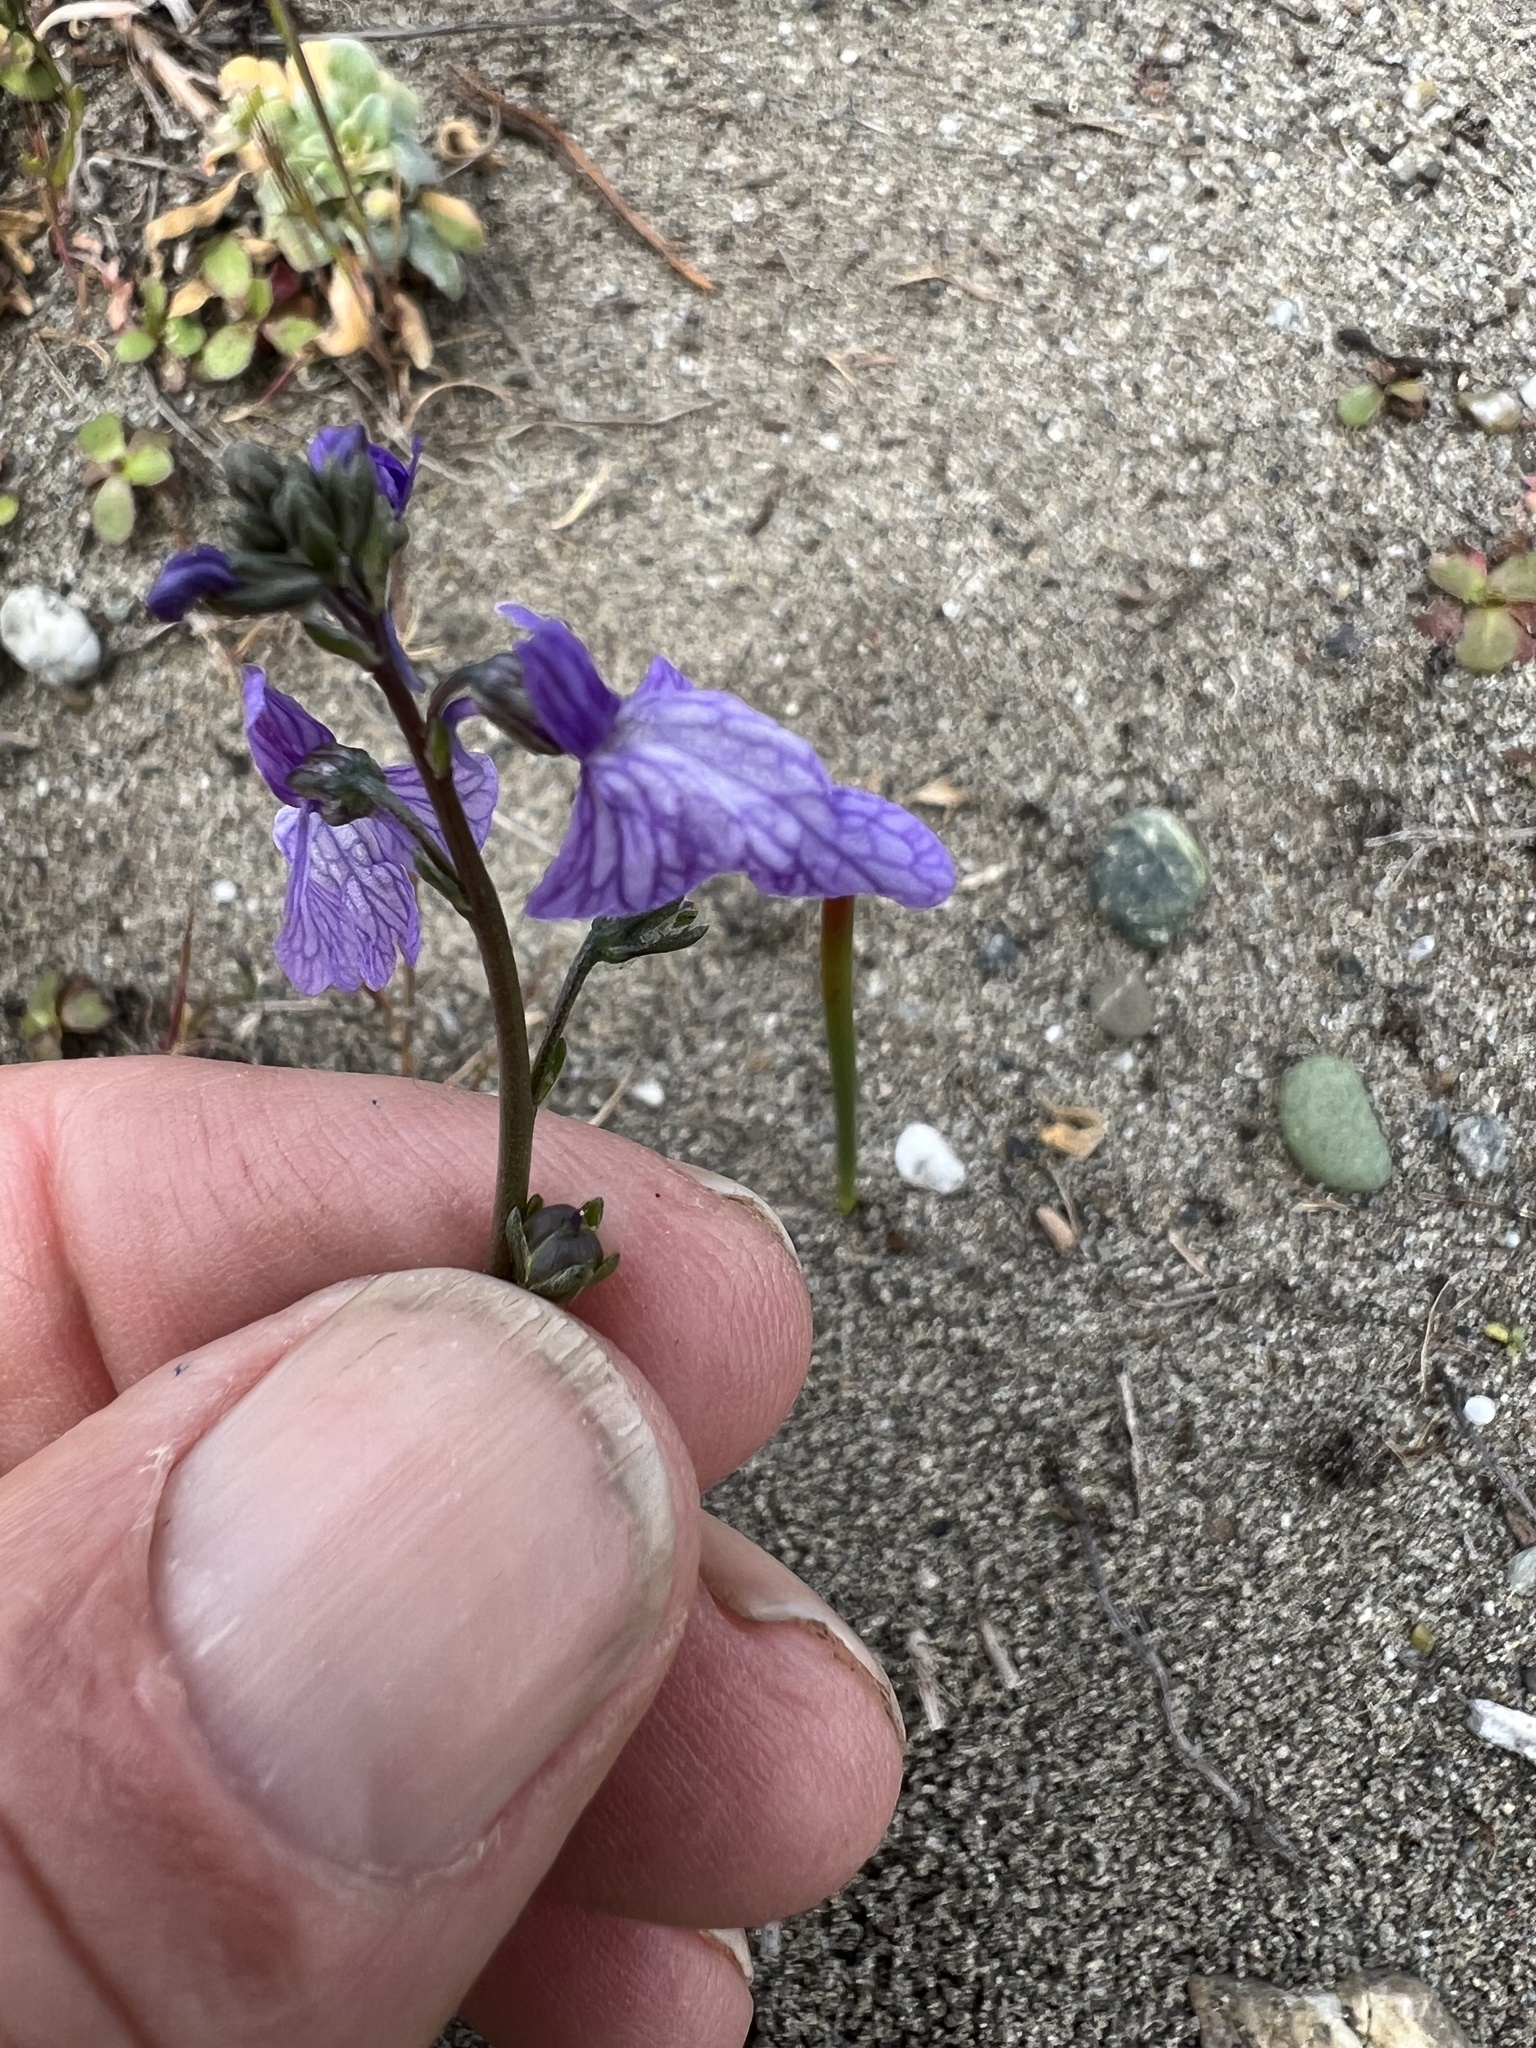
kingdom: Plantae
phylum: Tracheophyta
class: Magnoliopsida
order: Lamiales
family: Plantaginaceae
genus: Nuttallanthus
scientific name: Nuttallanthus texanus
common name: Texas toadflax
